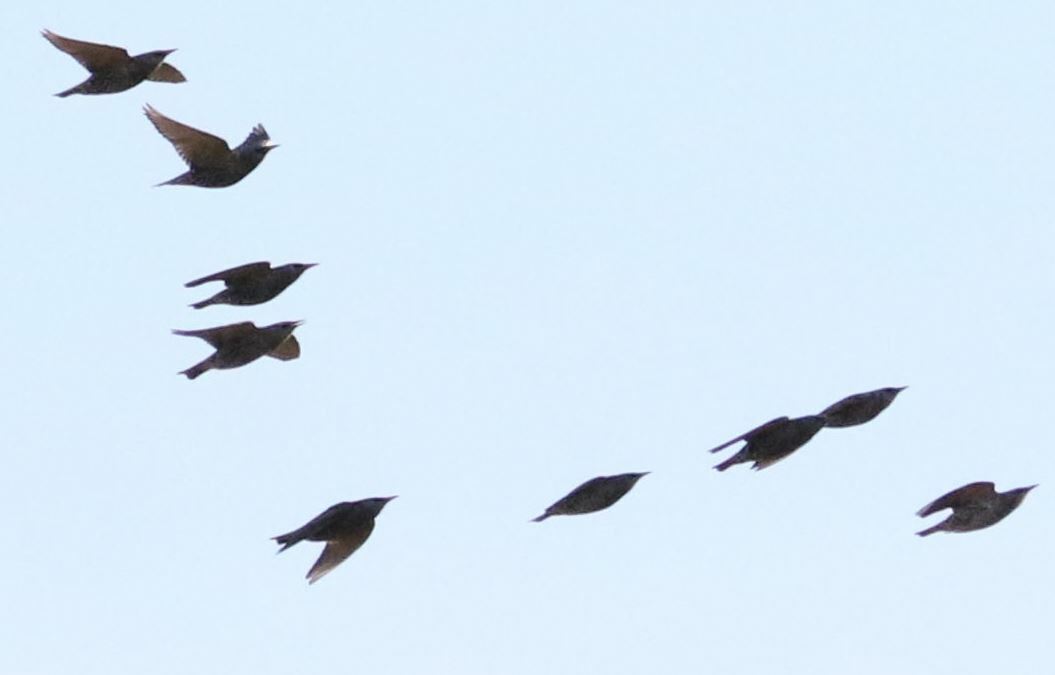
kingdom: Animalia
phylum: Chordata
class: Aves
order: Passeriformes
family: Sturnidae
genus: Sturnus
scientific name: Sturnus vulgaris
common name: Common starling
